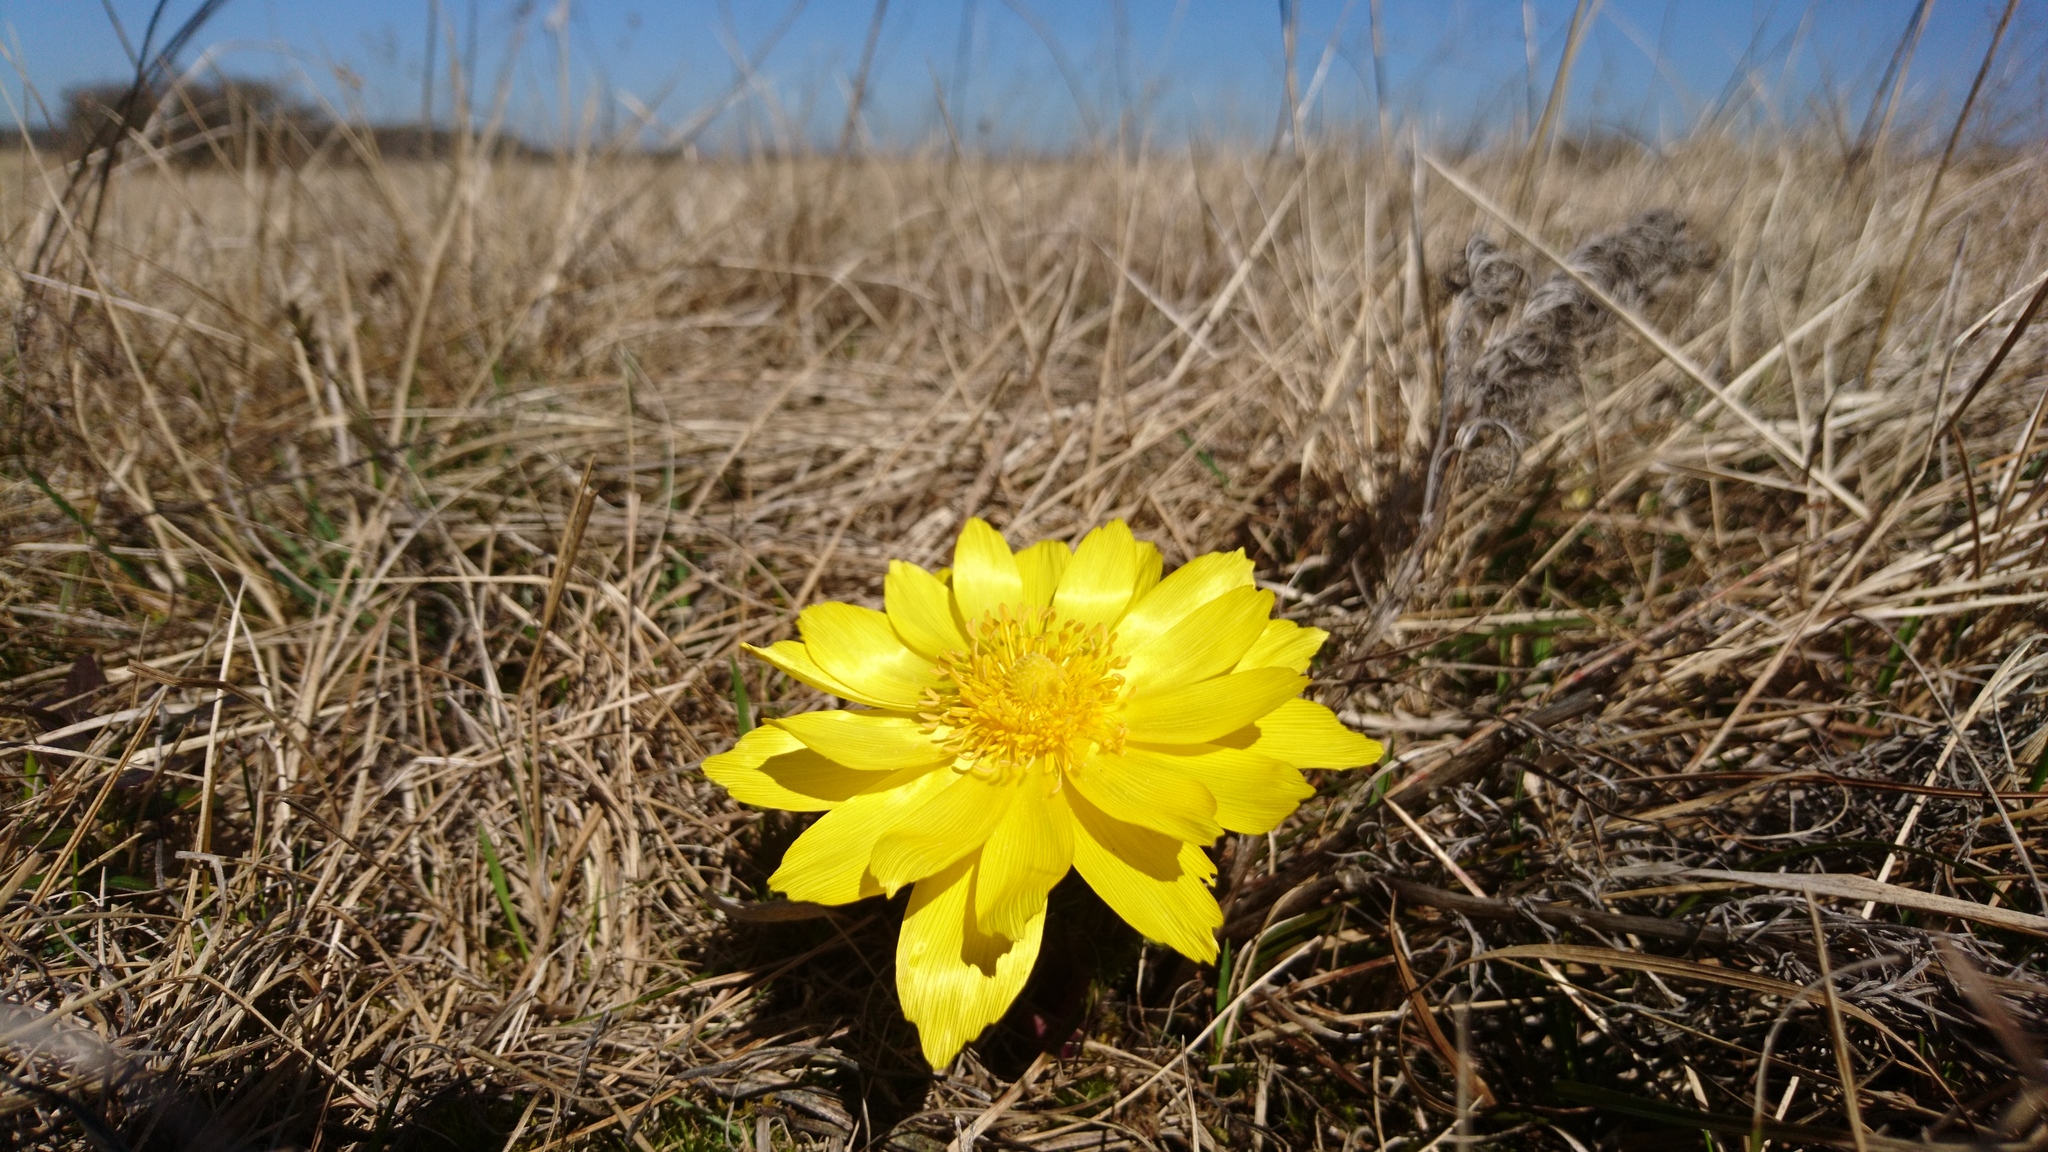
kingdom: Plantae
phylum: Tracheophyta
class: Magnoliopsida
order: Ranunculales
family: Ranunculaceae
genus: Adonis
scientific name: Adonis vernalis
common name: Yellow pheasants-eye
